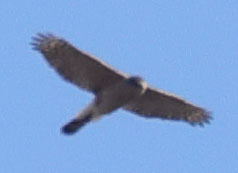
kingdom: Animalia
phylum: Chordata
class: Aves
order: Accipitriformes
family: Accipitridae
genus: Accipiter
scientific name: Accipiter cooperii
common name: Cooper's hawk
